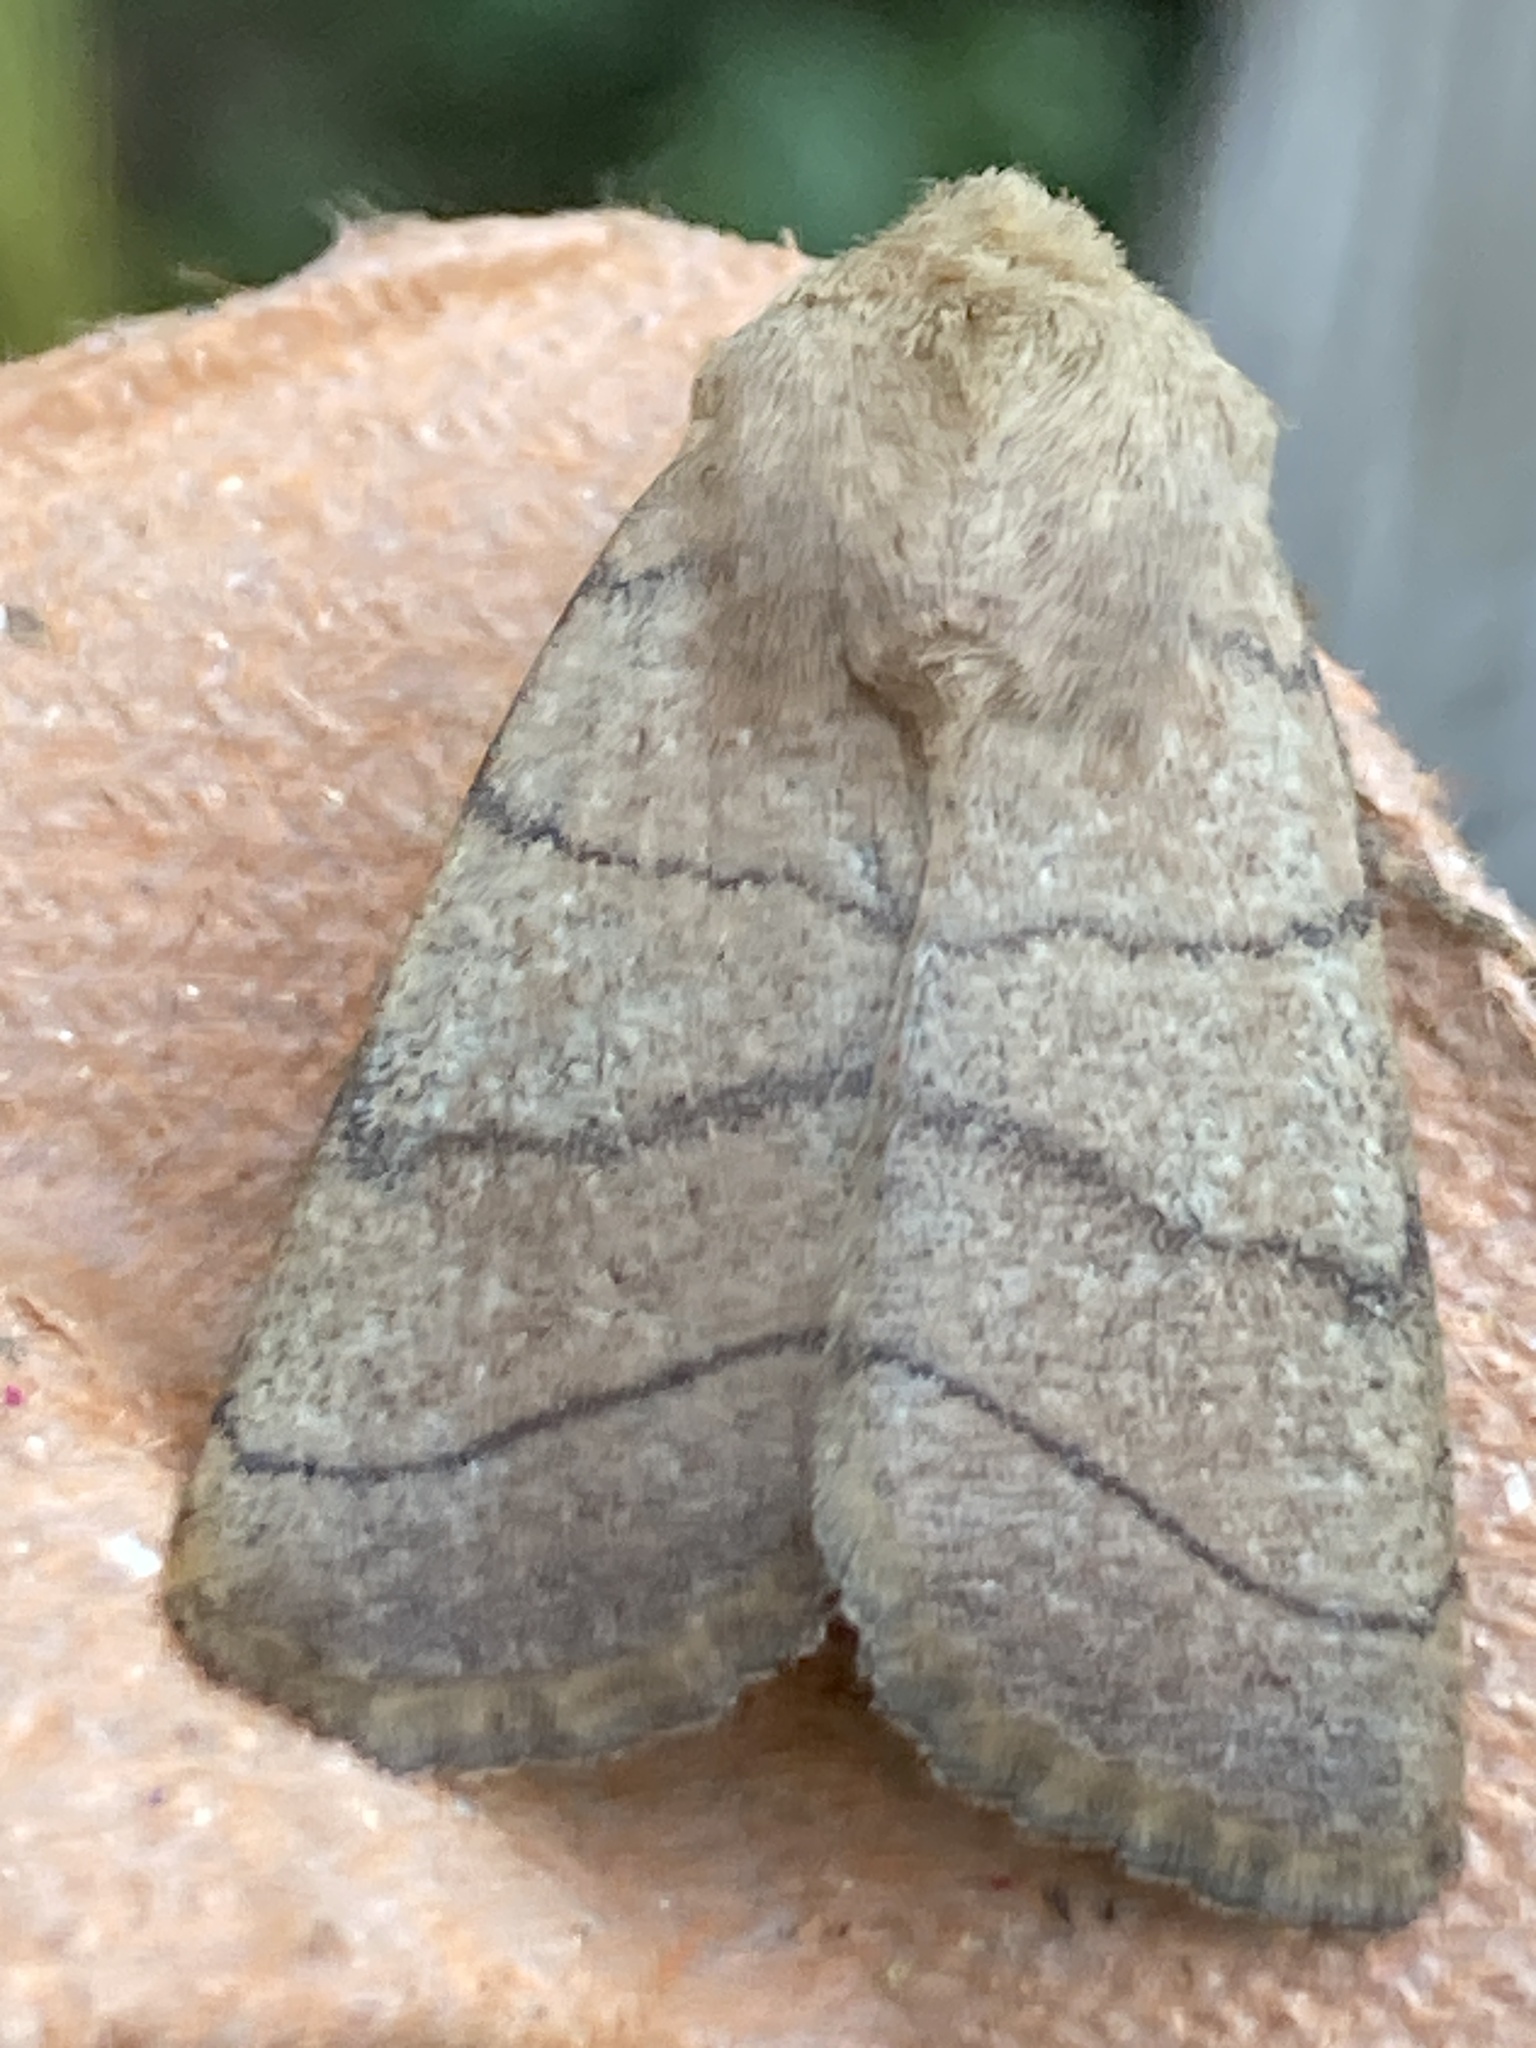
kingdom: Animalia
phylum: Arthropoda
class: Insecta
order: Lepidoptera
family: Noctuidae
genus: Charanyca
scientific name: Charanyca trigrammica
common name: Treble lines
